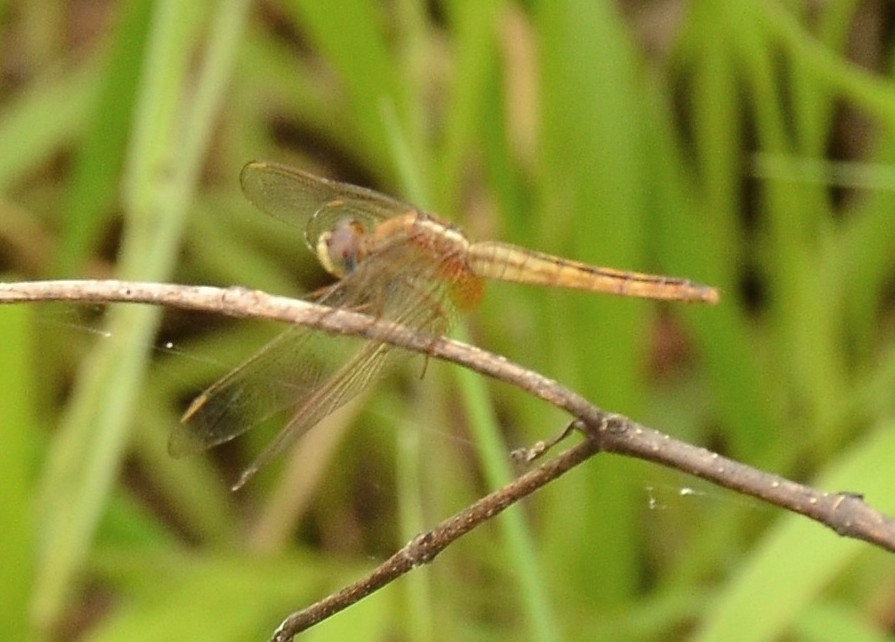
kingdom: Animalia
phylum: Arthropoda
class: Insecta
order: Odonata
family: Libellulidae
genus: Crocothemis
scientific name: Crocothemis servilia
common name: Scarlet skimmer
